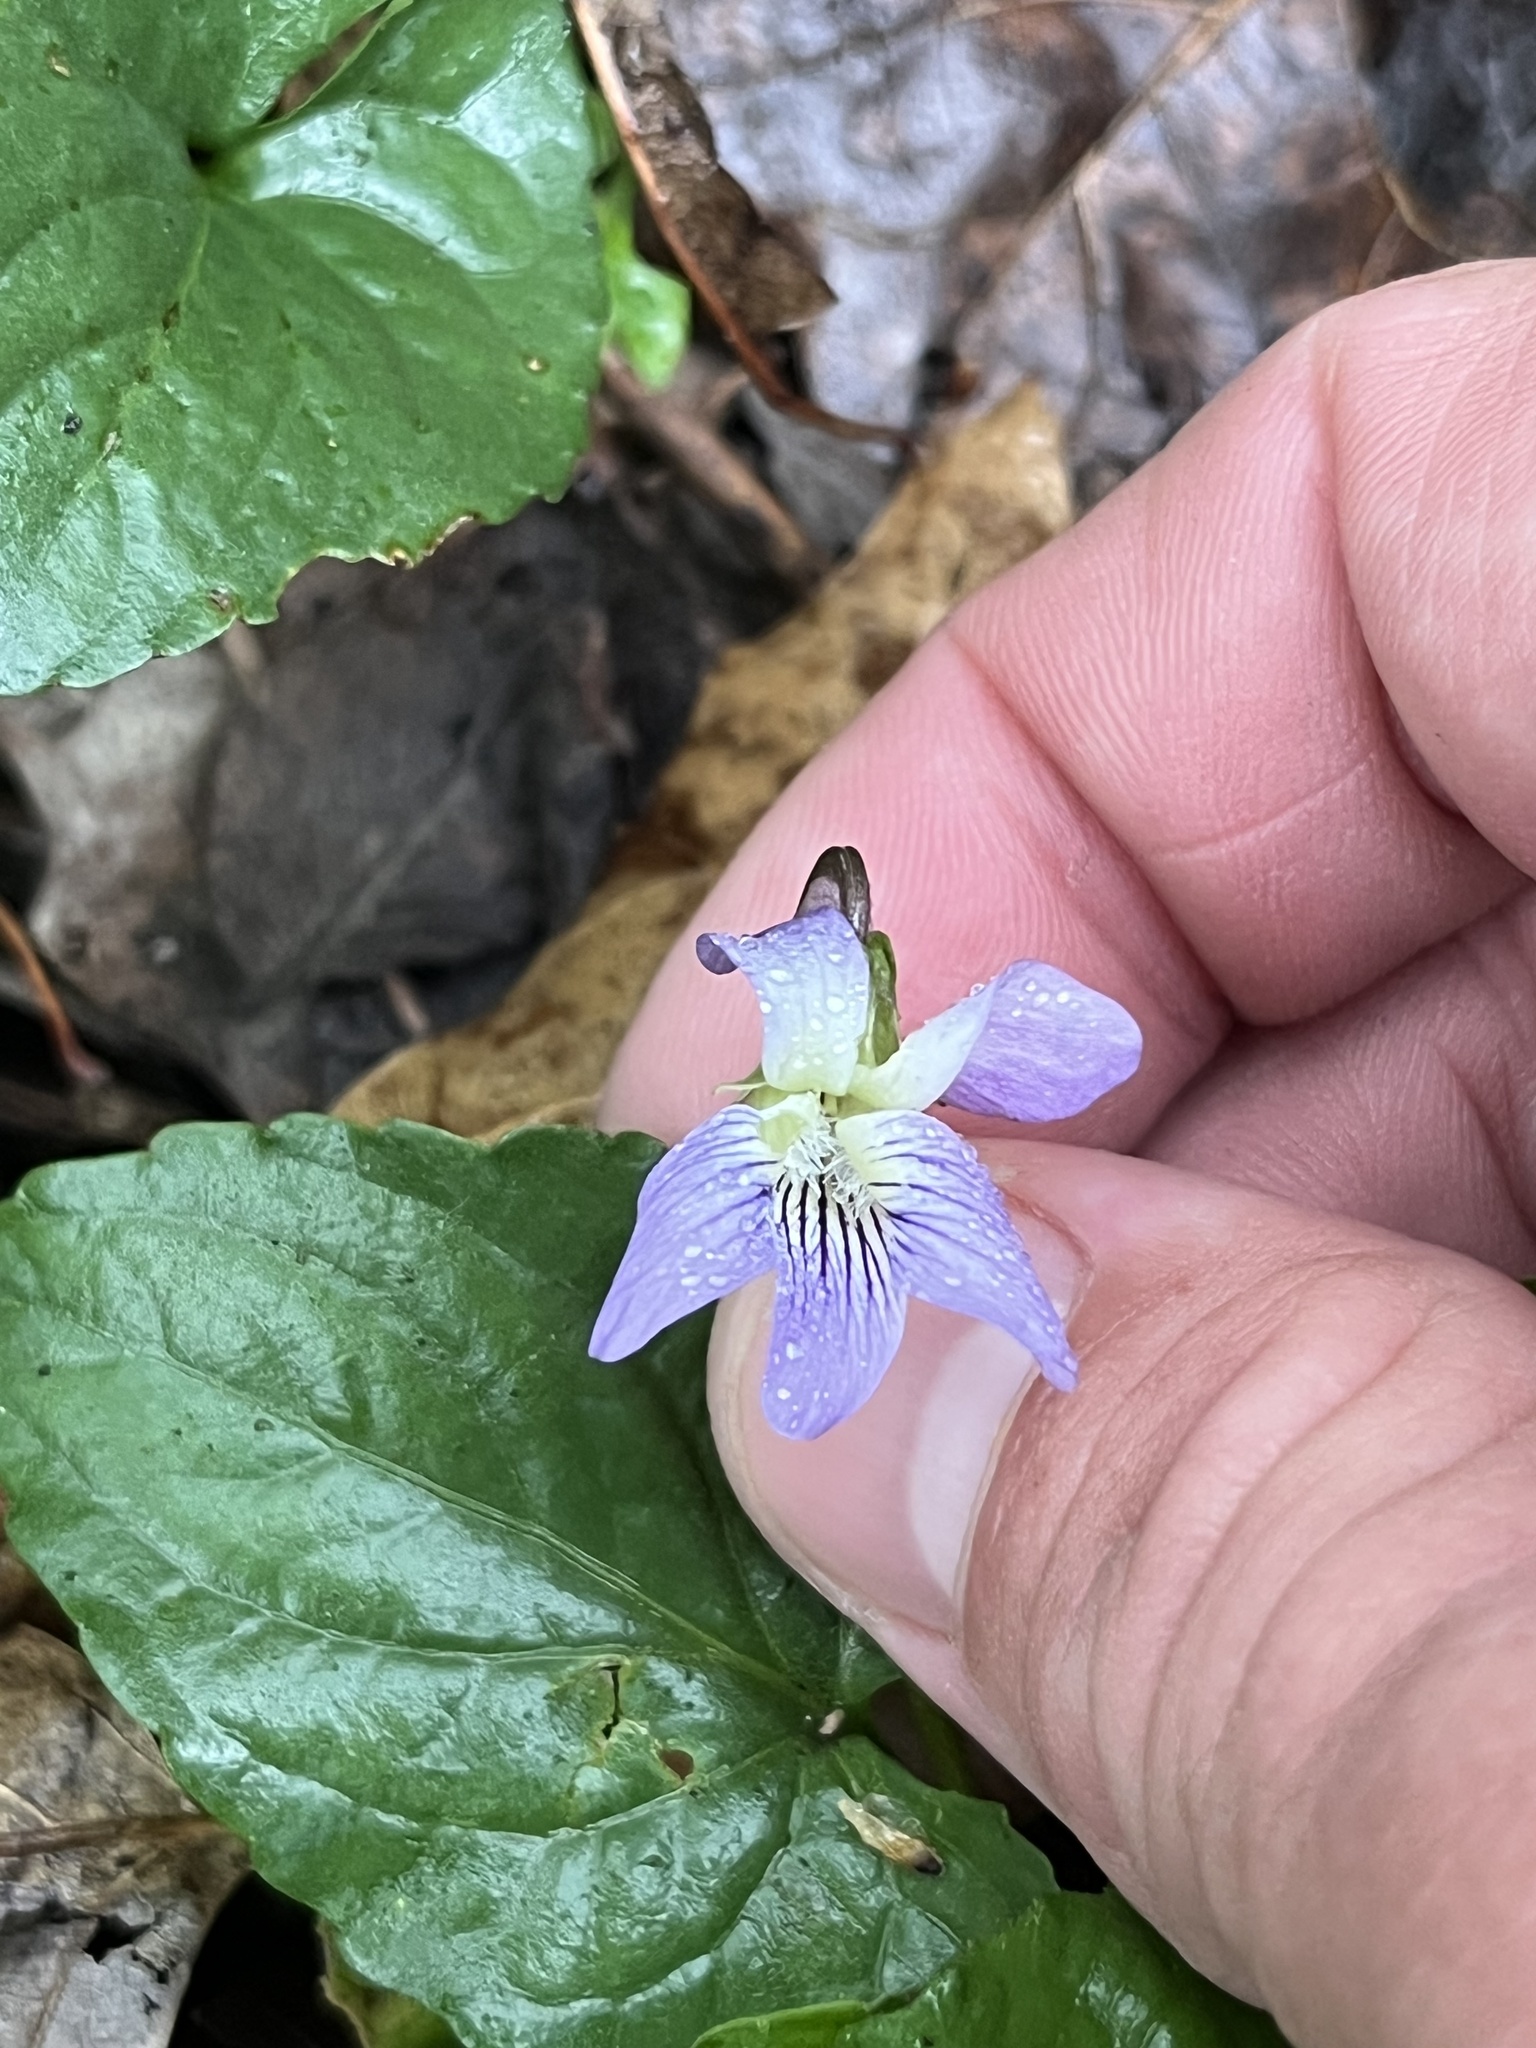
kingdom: Plantae
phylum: Tracheophyta
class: Magnoliopsida
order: Malpighiales
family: Violaceae
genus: Viola
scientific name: Viola missouriensis
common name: Missouri violet
